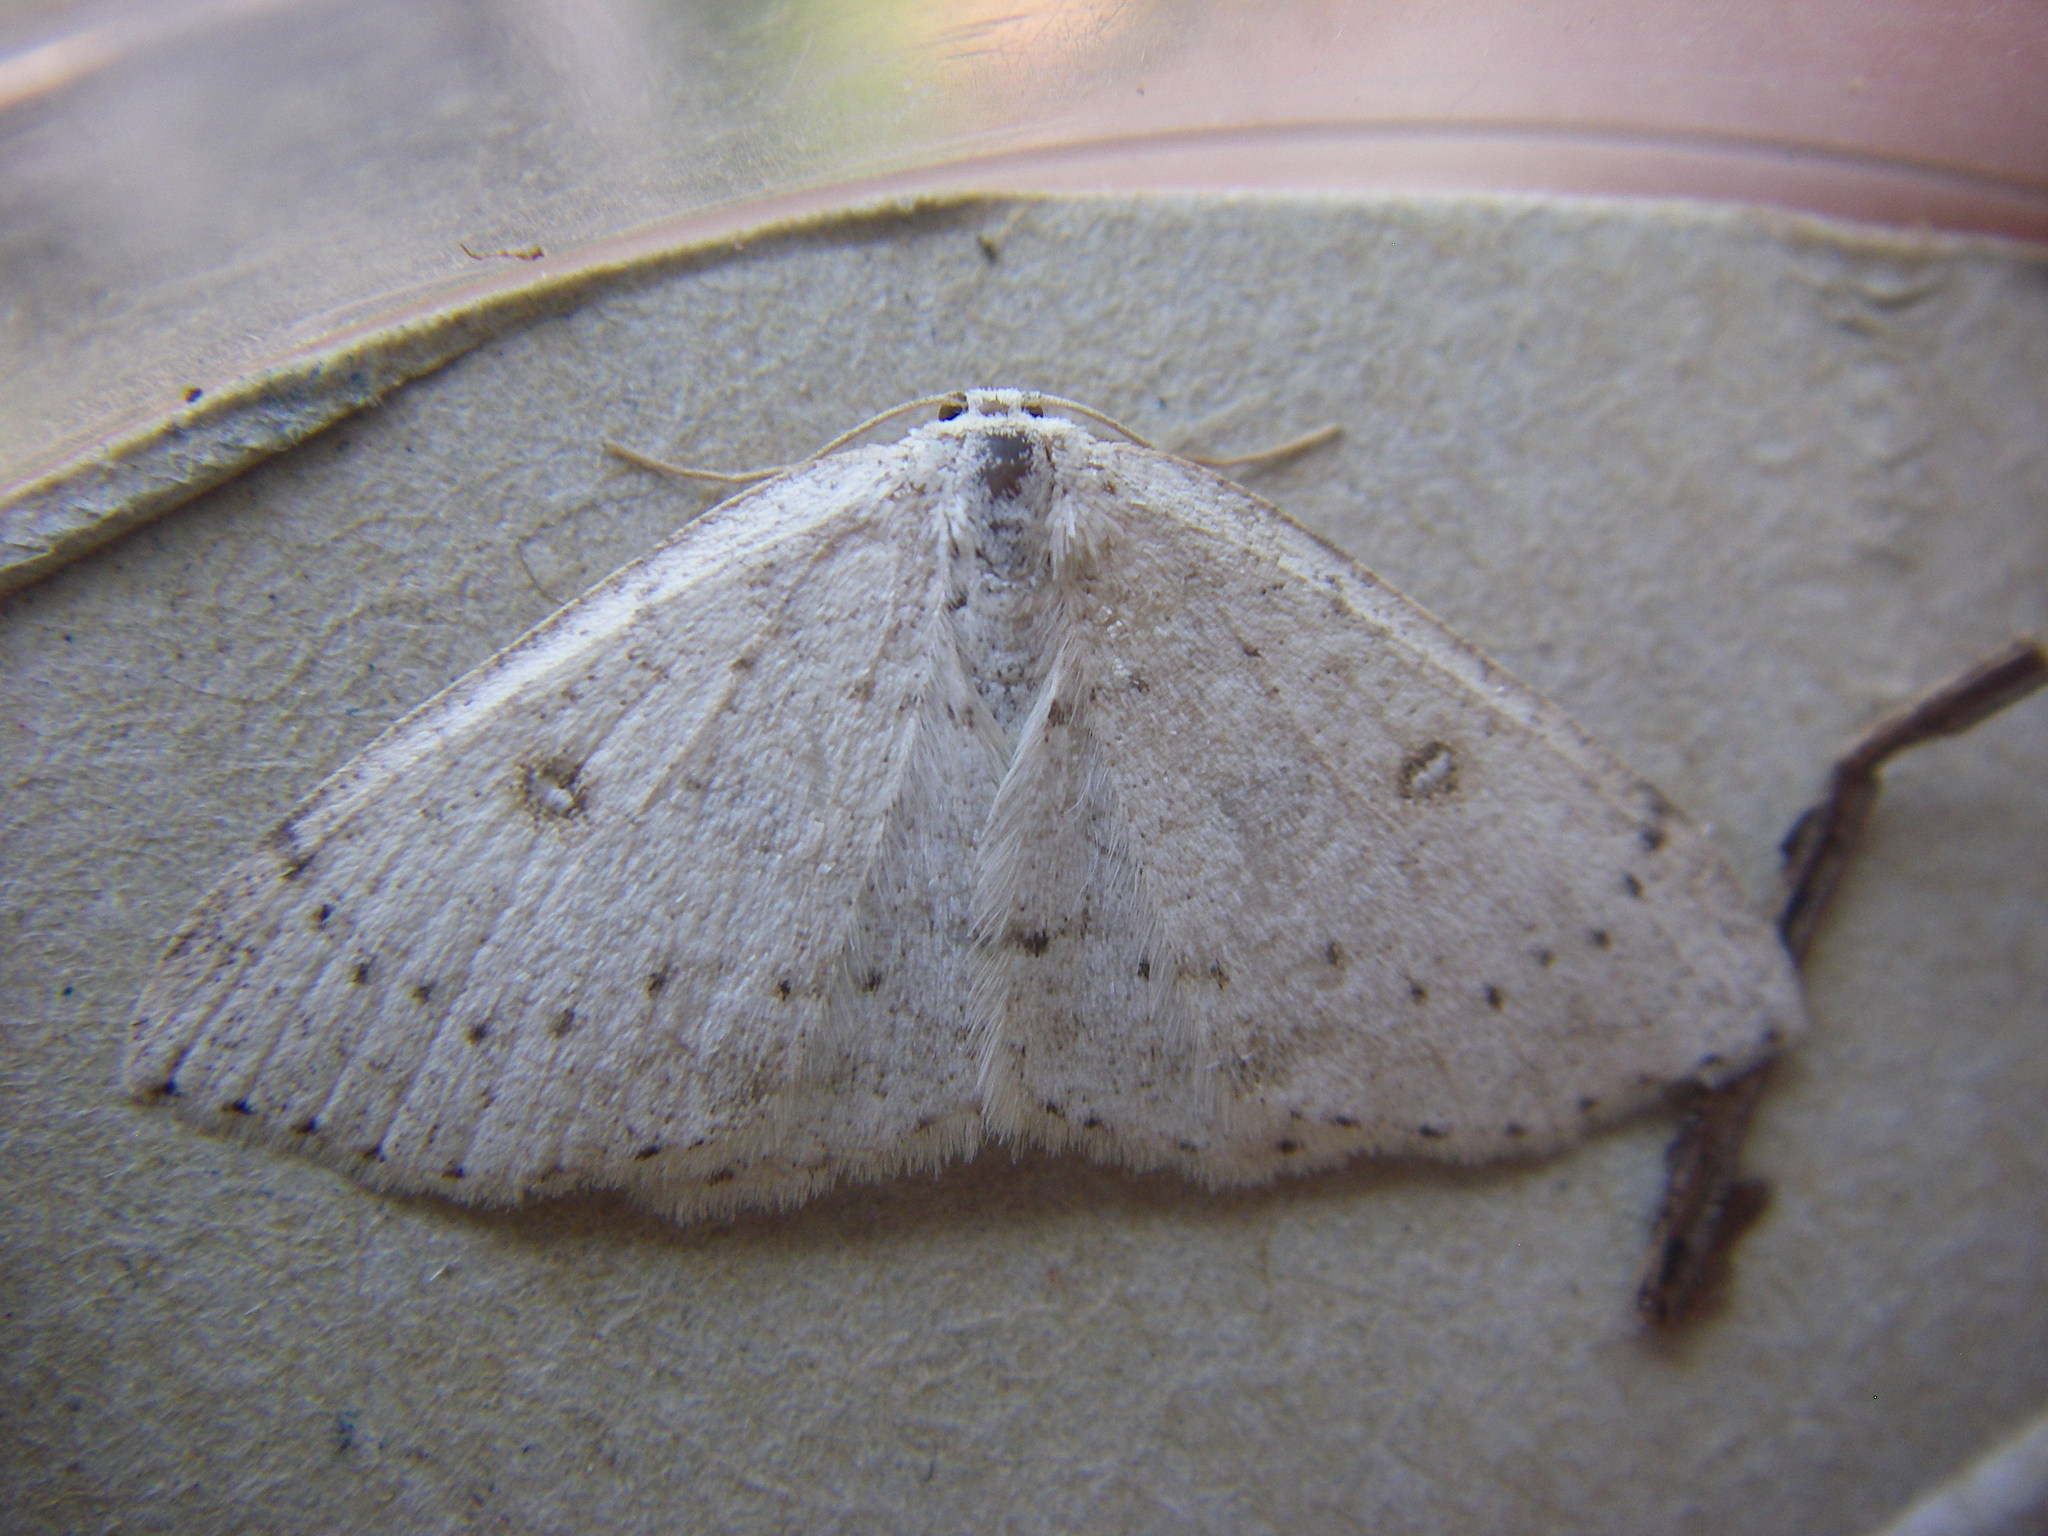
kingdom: Animalia
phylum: Arthropoda
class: Insecta
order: Lepidoptera
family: Geometridae
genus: Cyclophora
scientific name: Cyclophora albipunctata
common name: Birch mocha
